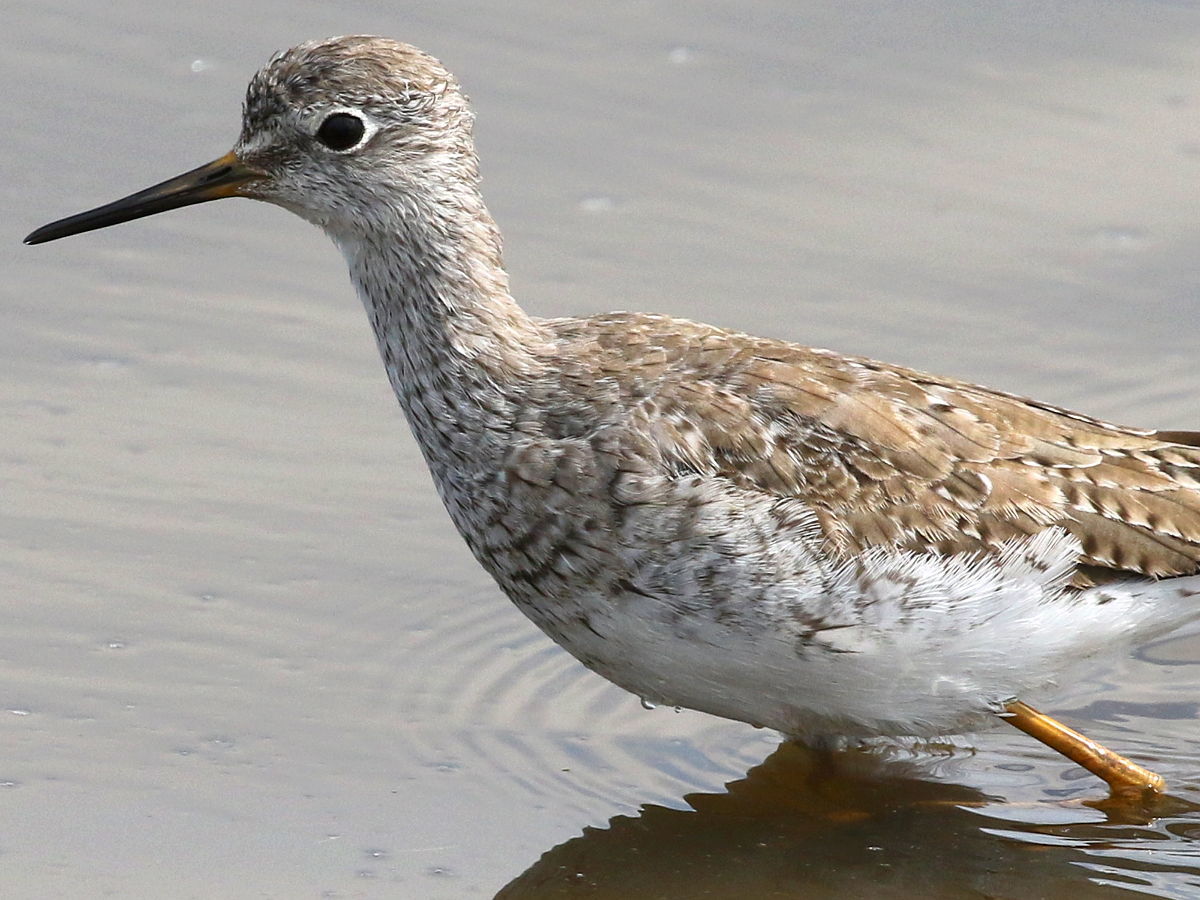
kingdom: Animalia
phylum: Chordata
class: Aves
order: Charadriiformes
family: Scolopacidae
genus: Tringa
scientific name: Tringa flavipes
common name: Lesser yellowlegs
